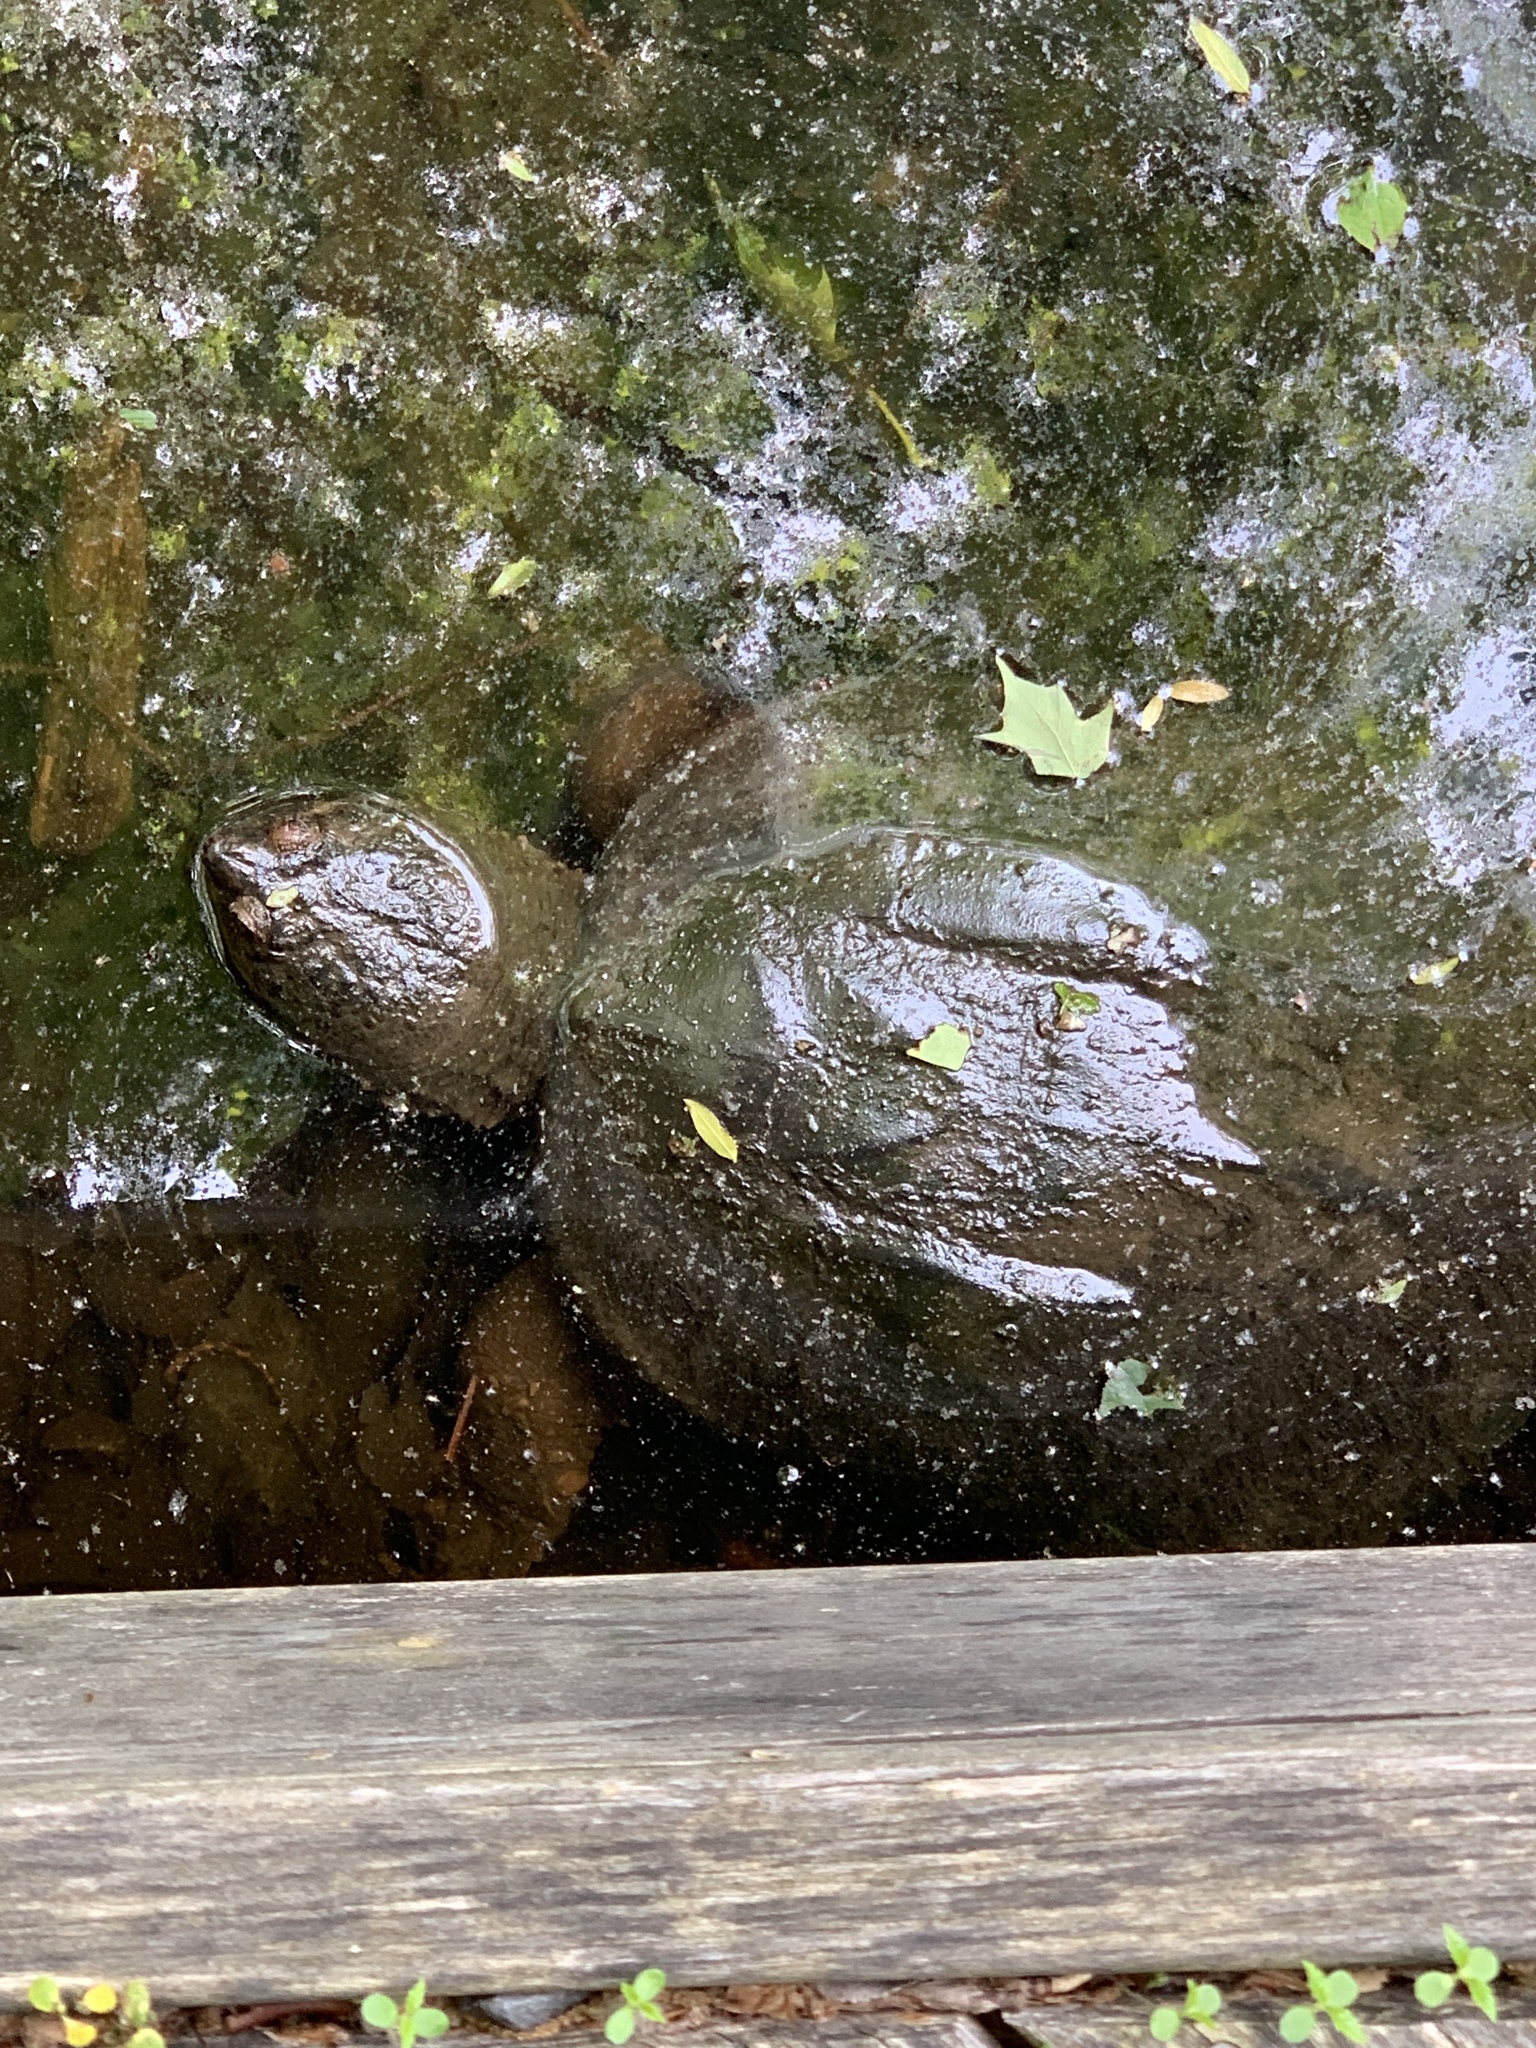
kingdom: Animalia
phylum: Chordata
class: Testudines
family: Chelydridae
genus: Chelydra
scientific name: Chelydra serpentina
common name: Common snapping turtle
